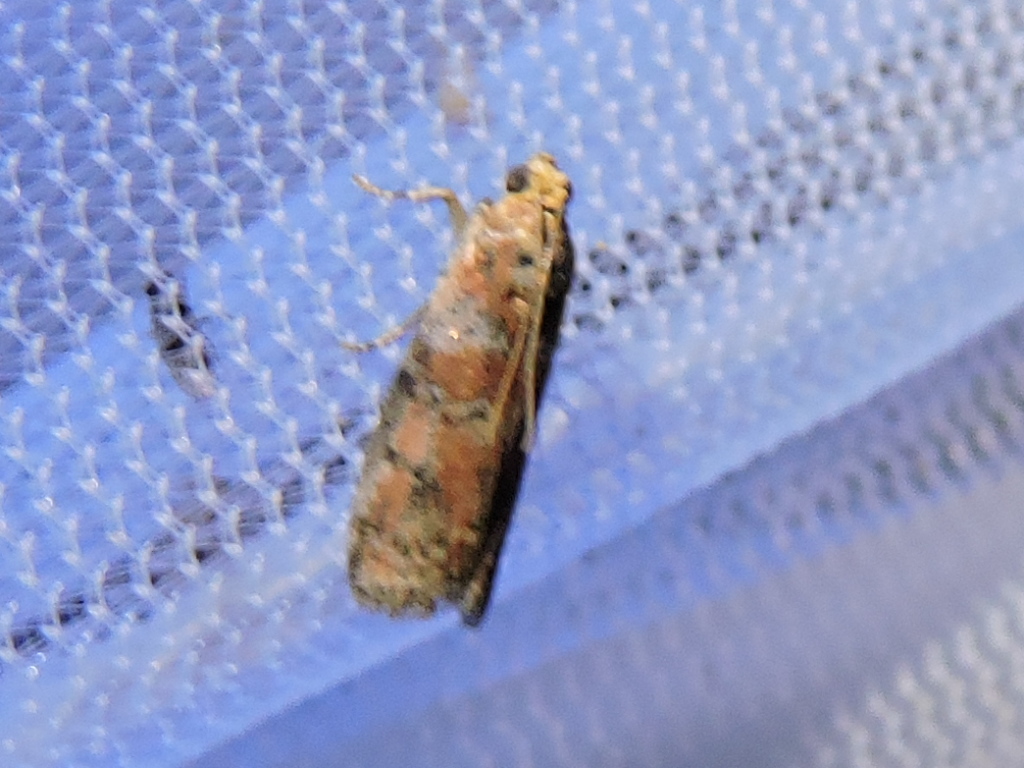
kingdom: Animalia
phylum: Arthropoda
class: Insecta
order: Lepidoptera
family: Pyralidae
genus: Sciota
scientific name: Sciota
